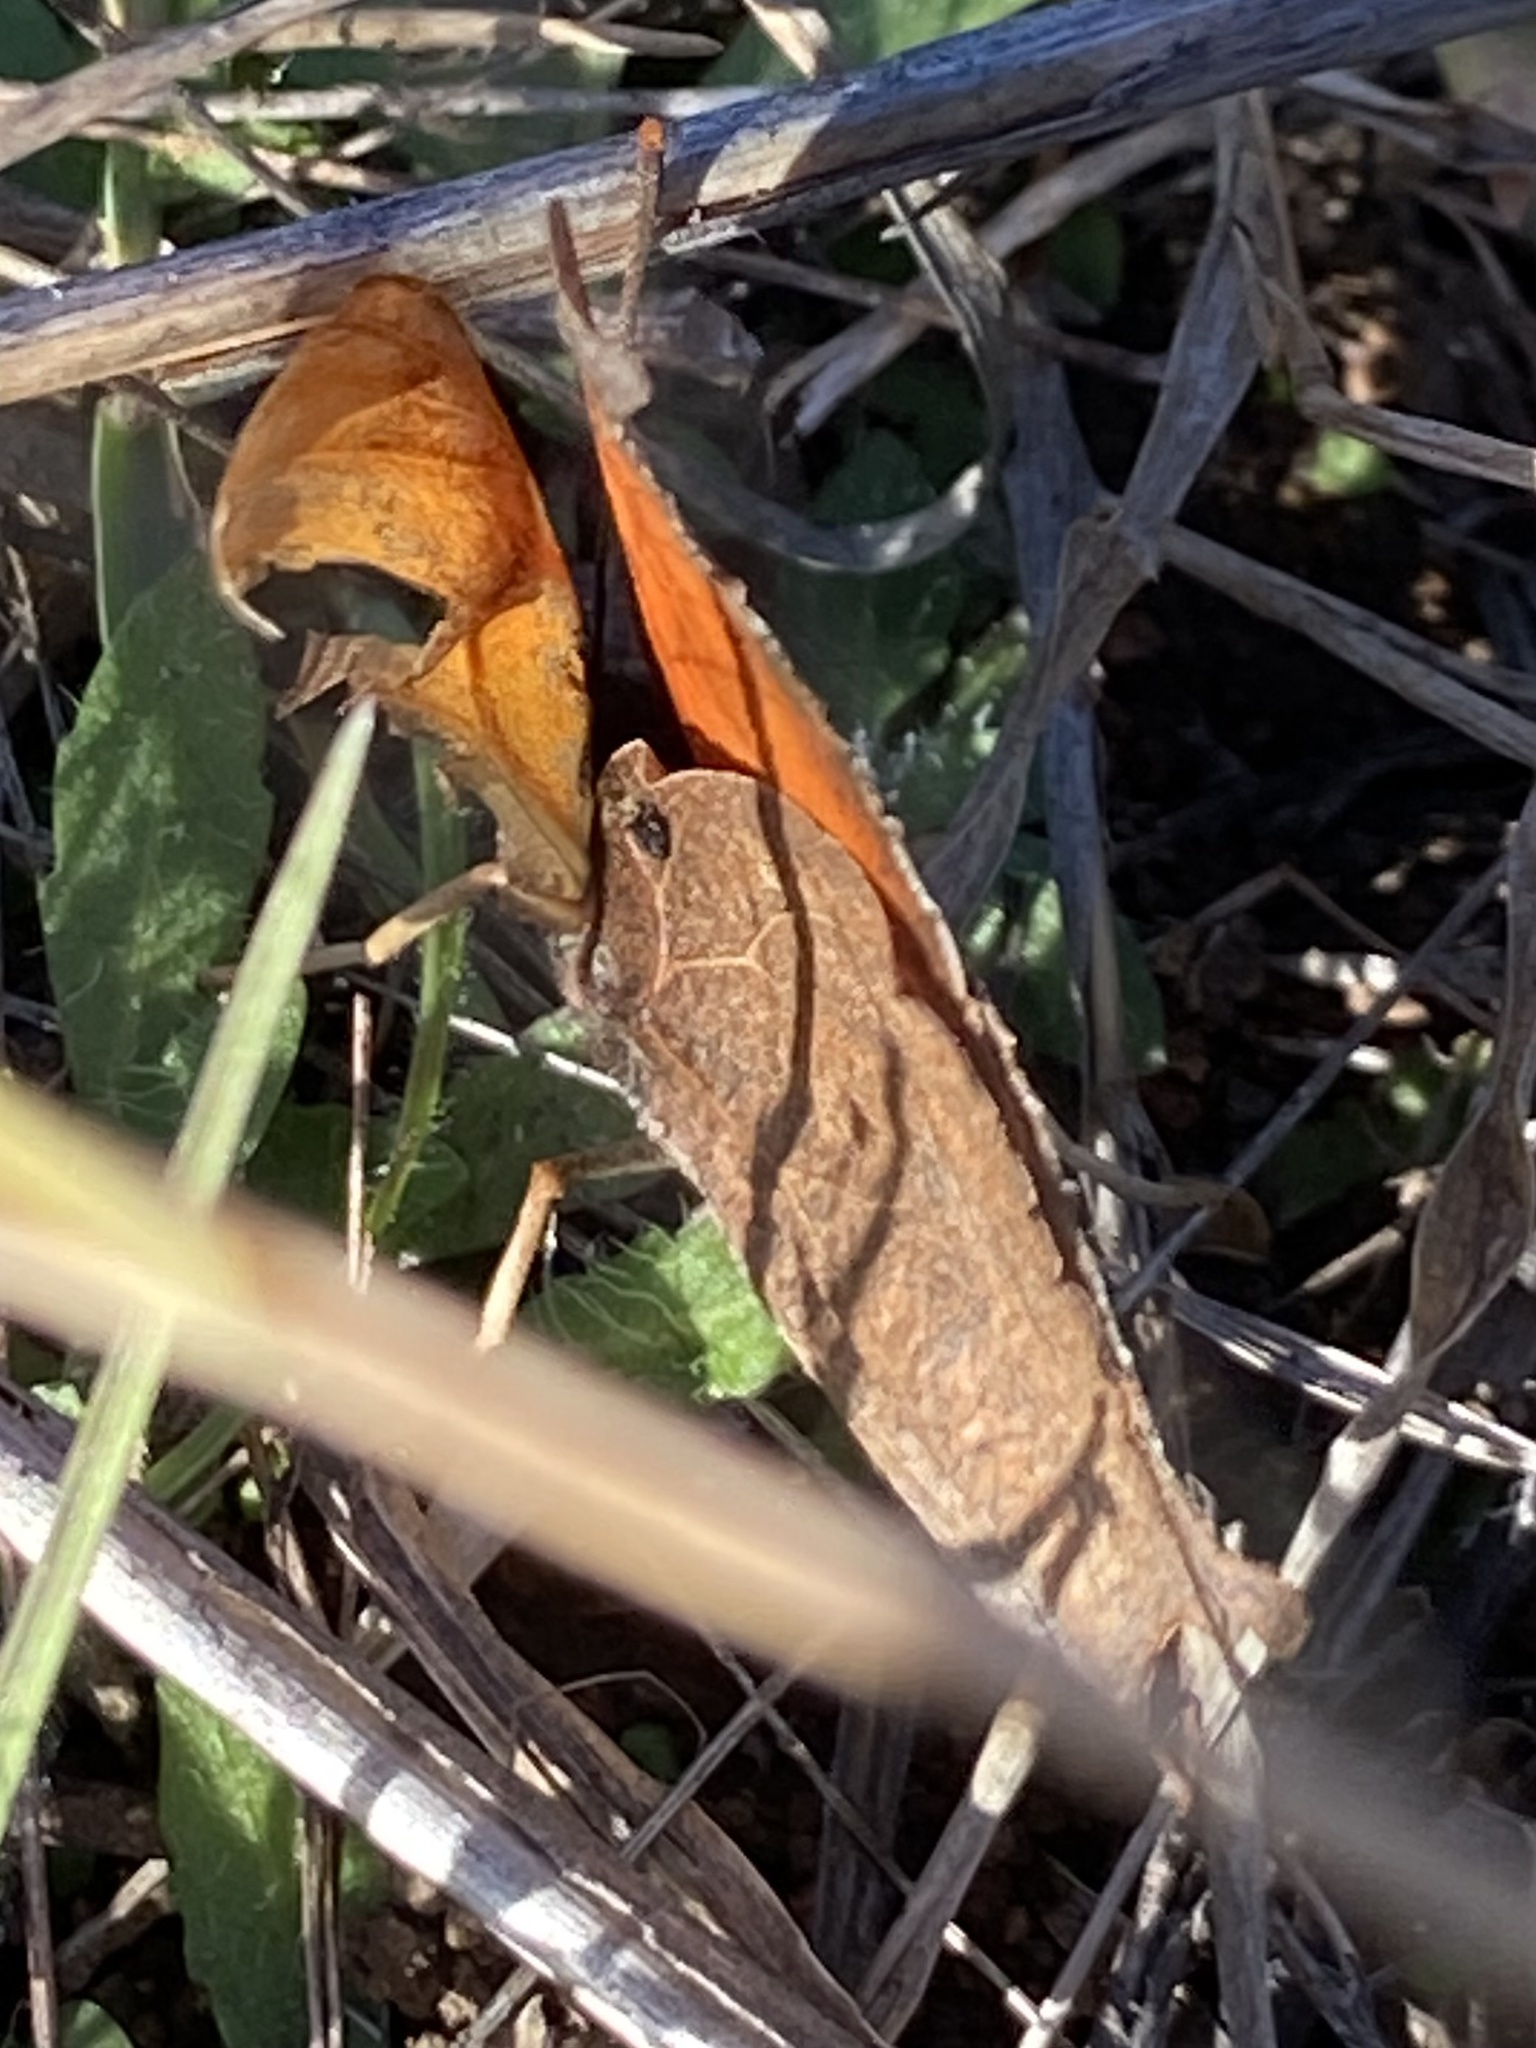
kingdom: Animalia
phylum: Arthropoda
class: Insecta
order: Lepidoptera
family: Nymphalidae
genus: Anaea
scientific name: Anaea andria
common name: Goatweed leafwing
